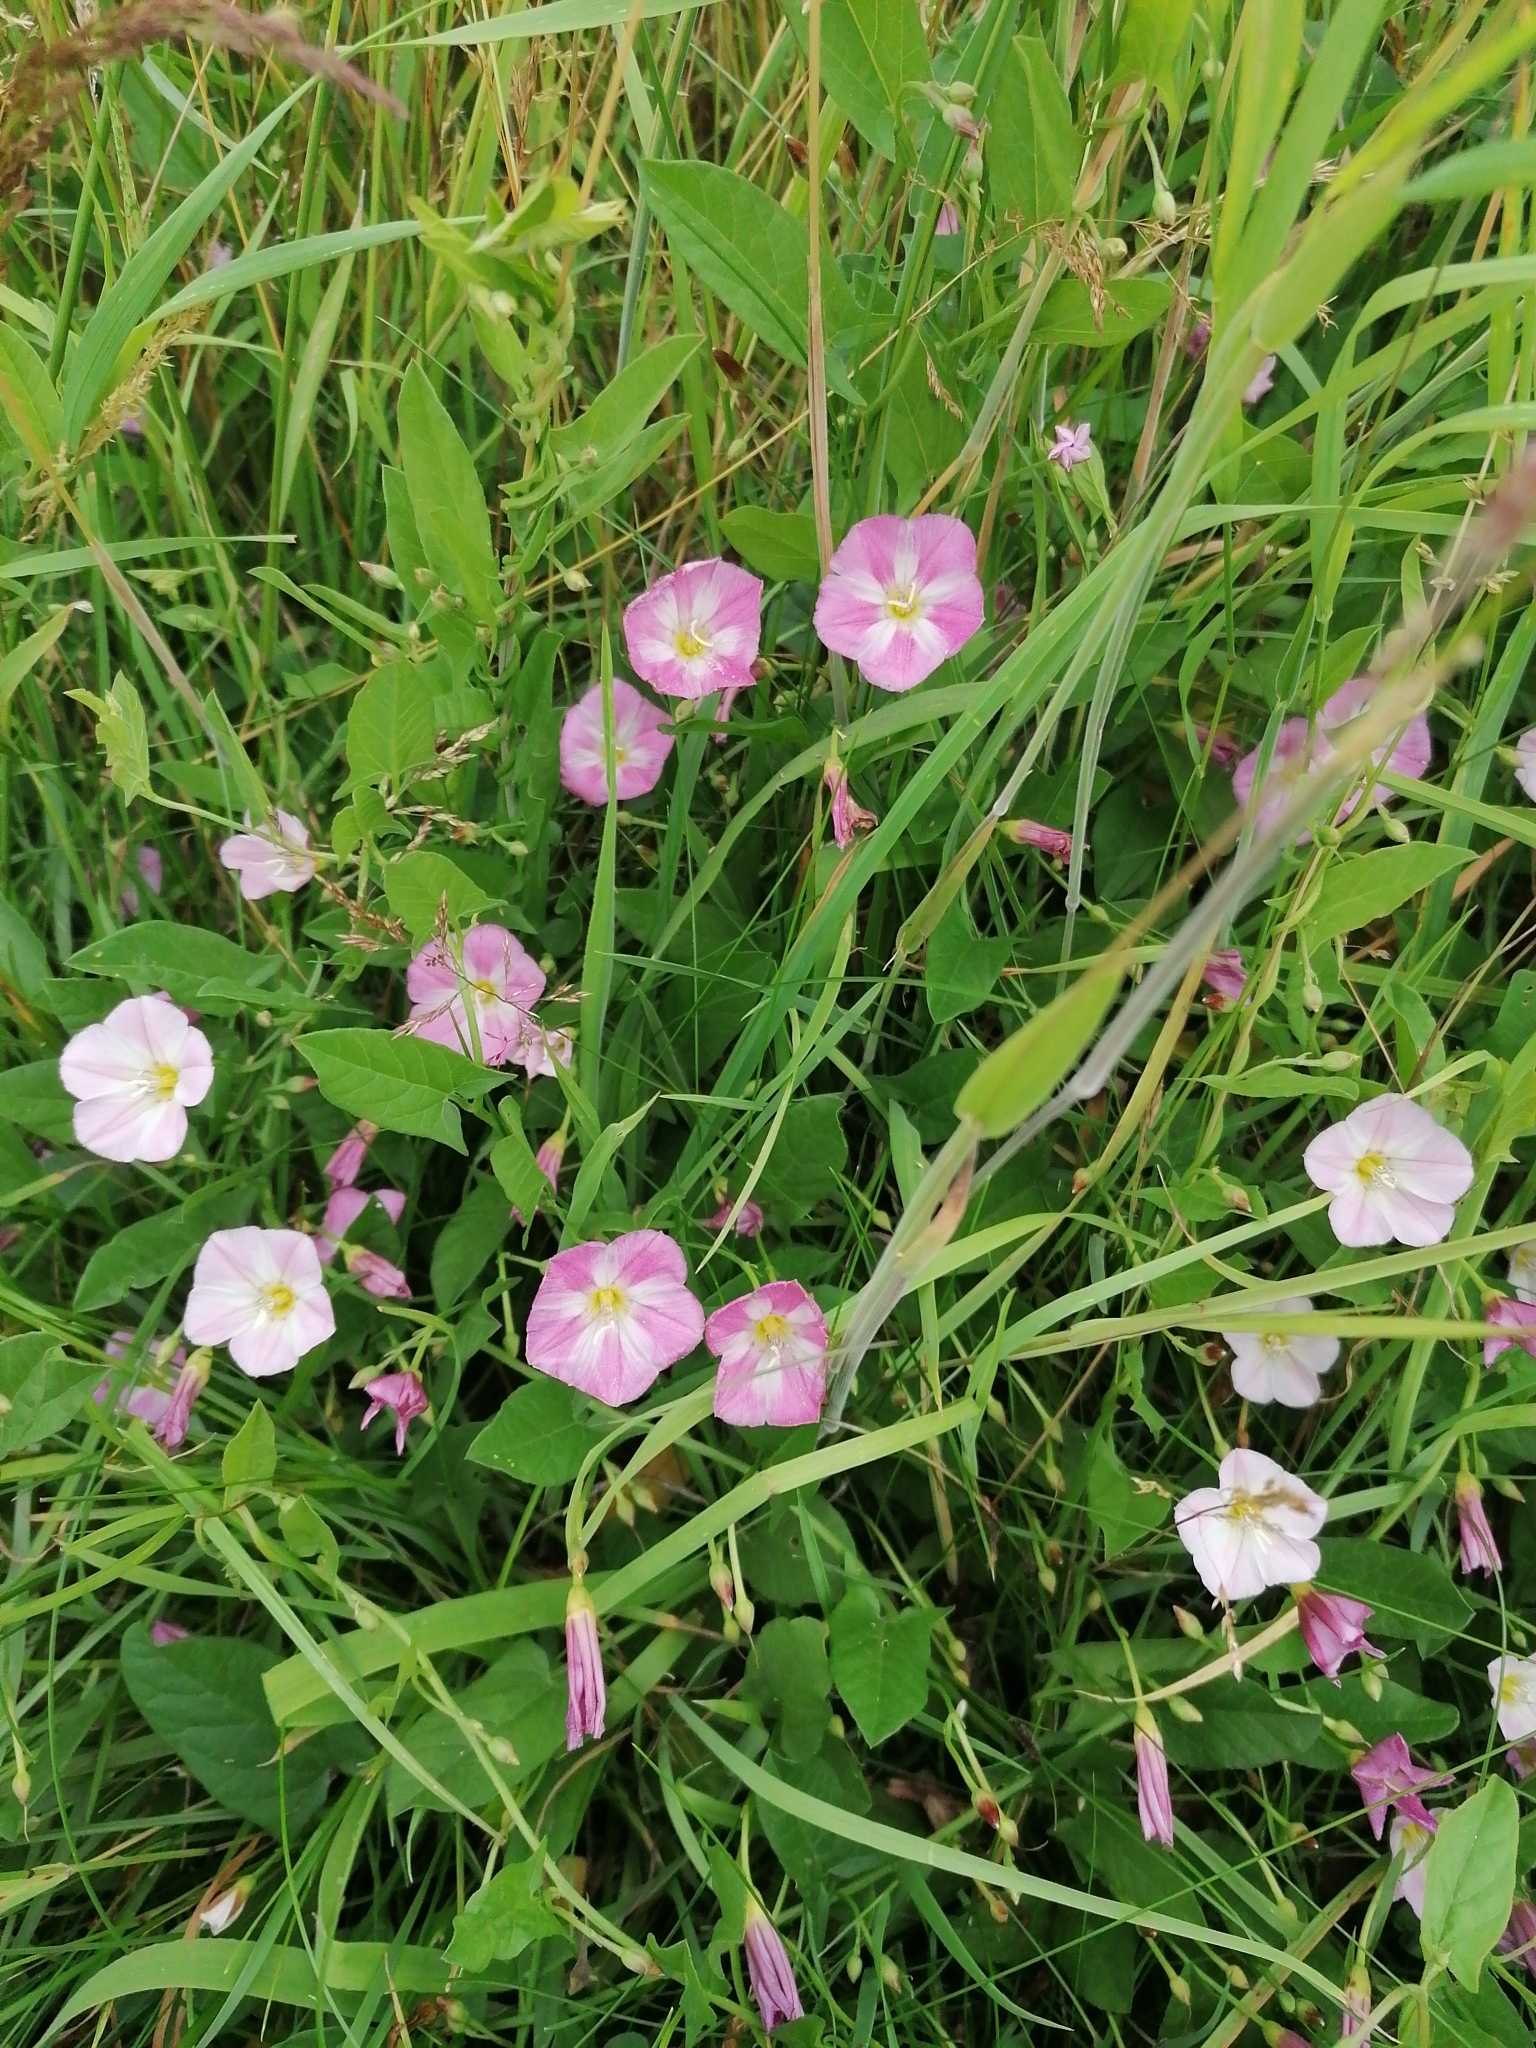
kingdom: Plantae
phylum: Tracheophyta
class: Magnoliopsida
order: Solanales
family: Convolvulaceae
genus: Convolvulus
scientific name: Convolvulus arvensis
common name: Field bindweed
